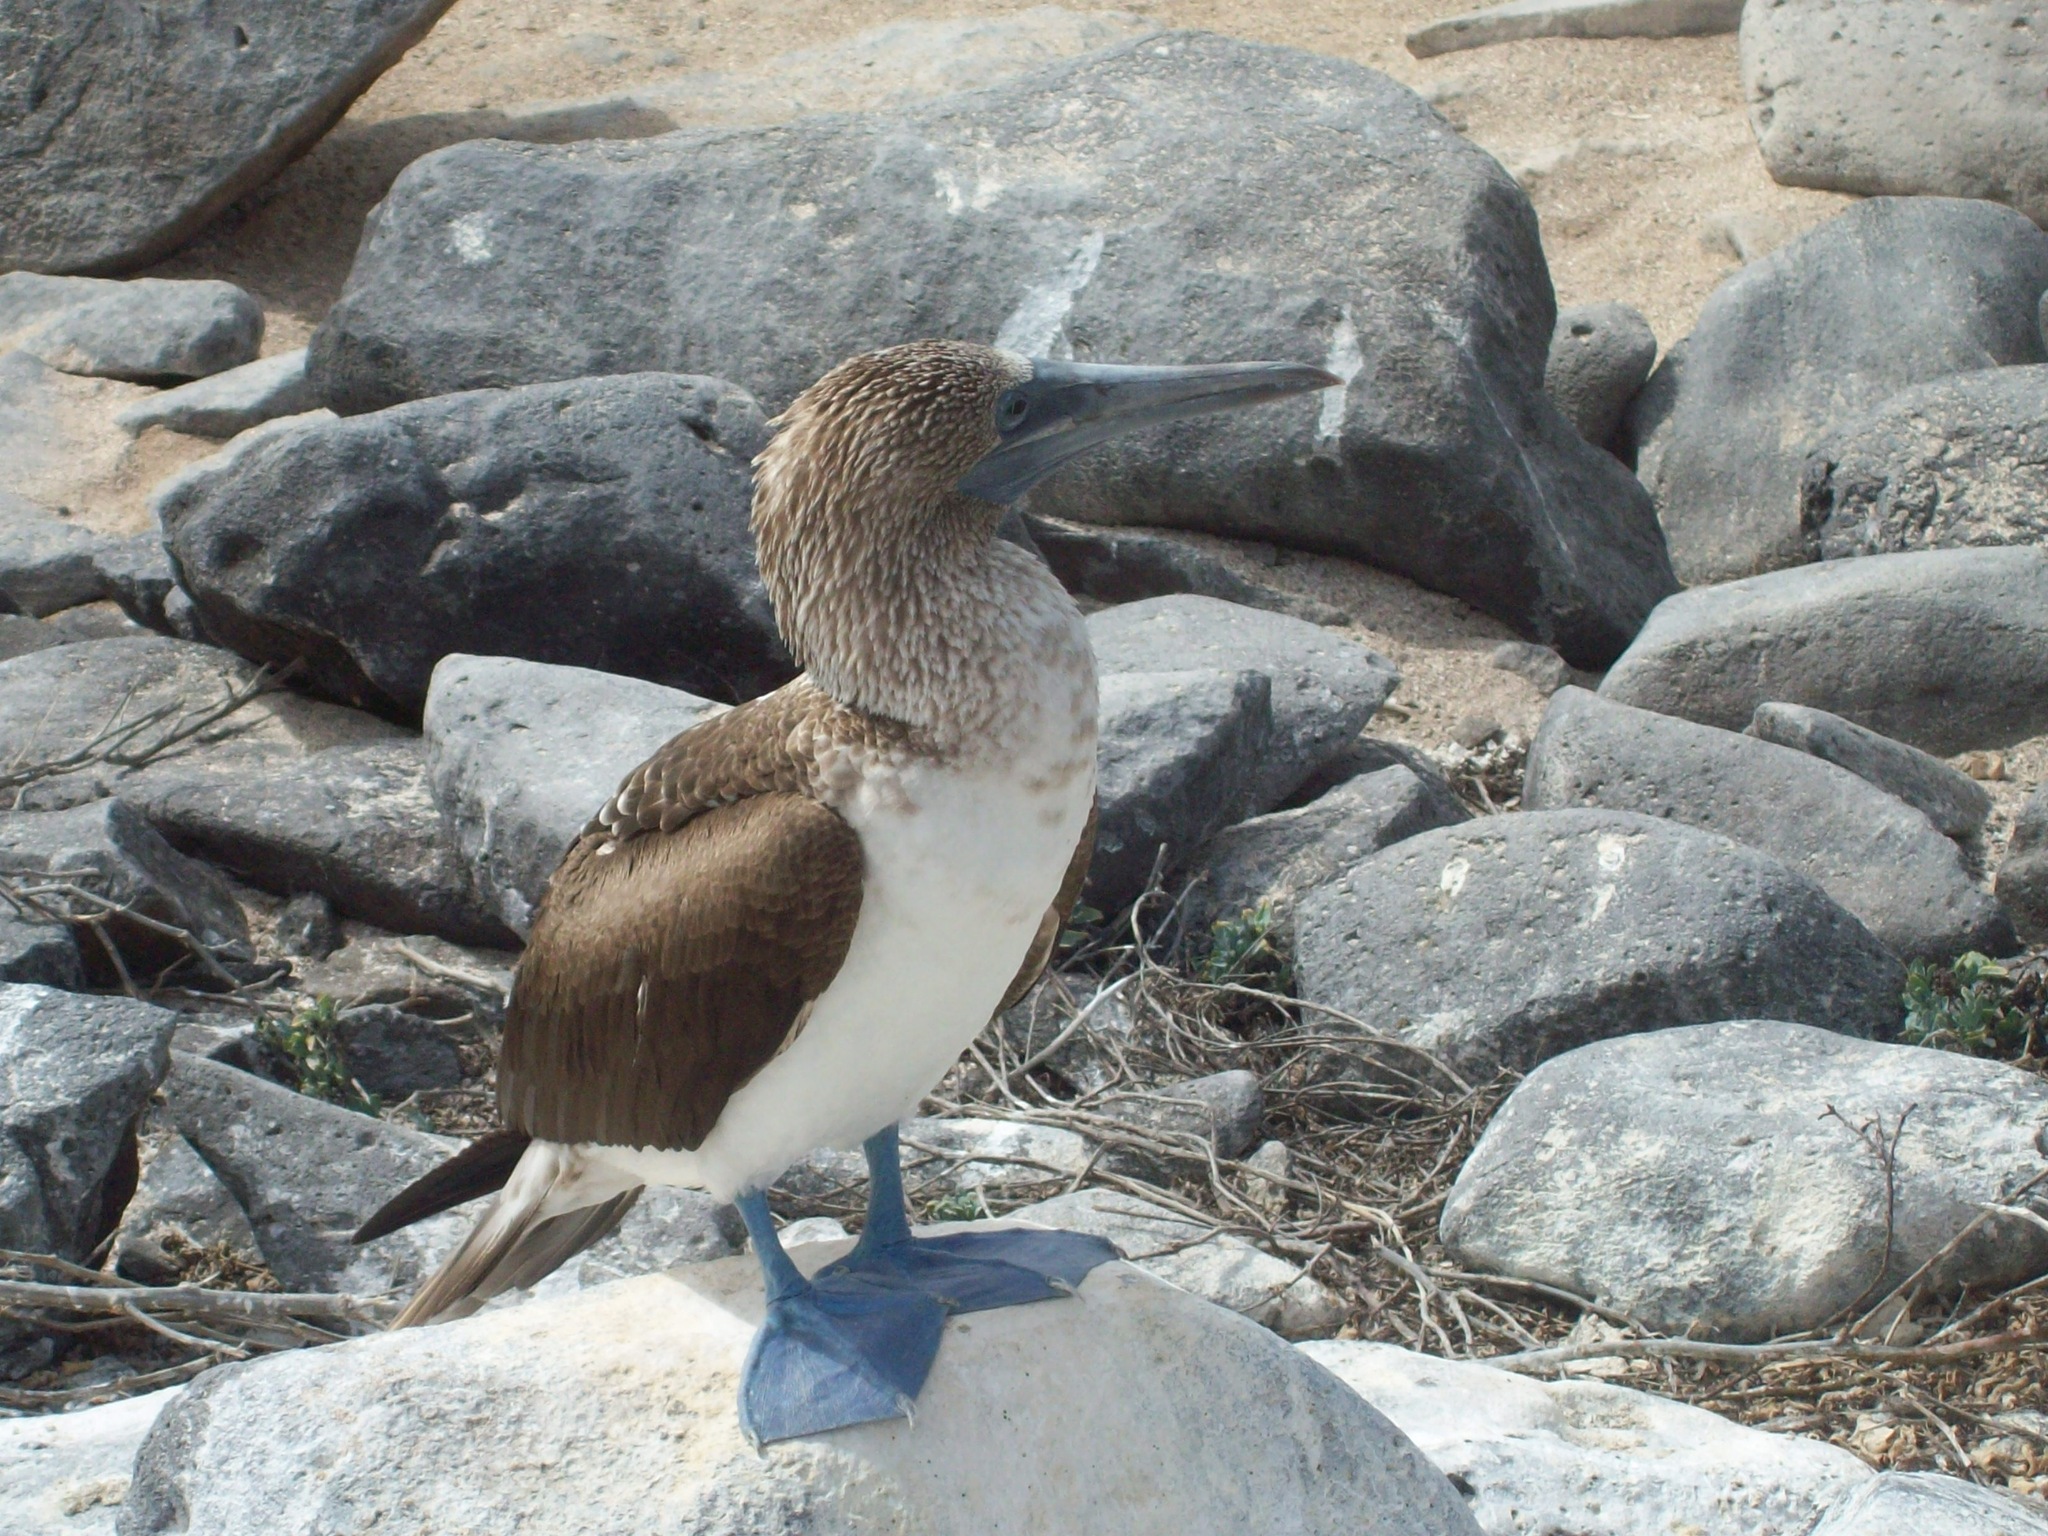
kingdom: Animalia
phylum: Chordata
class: Aves
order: Suliformes
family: Sulidae
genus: Sula
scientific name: Sula nebouxii
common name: Blue-footed booby
